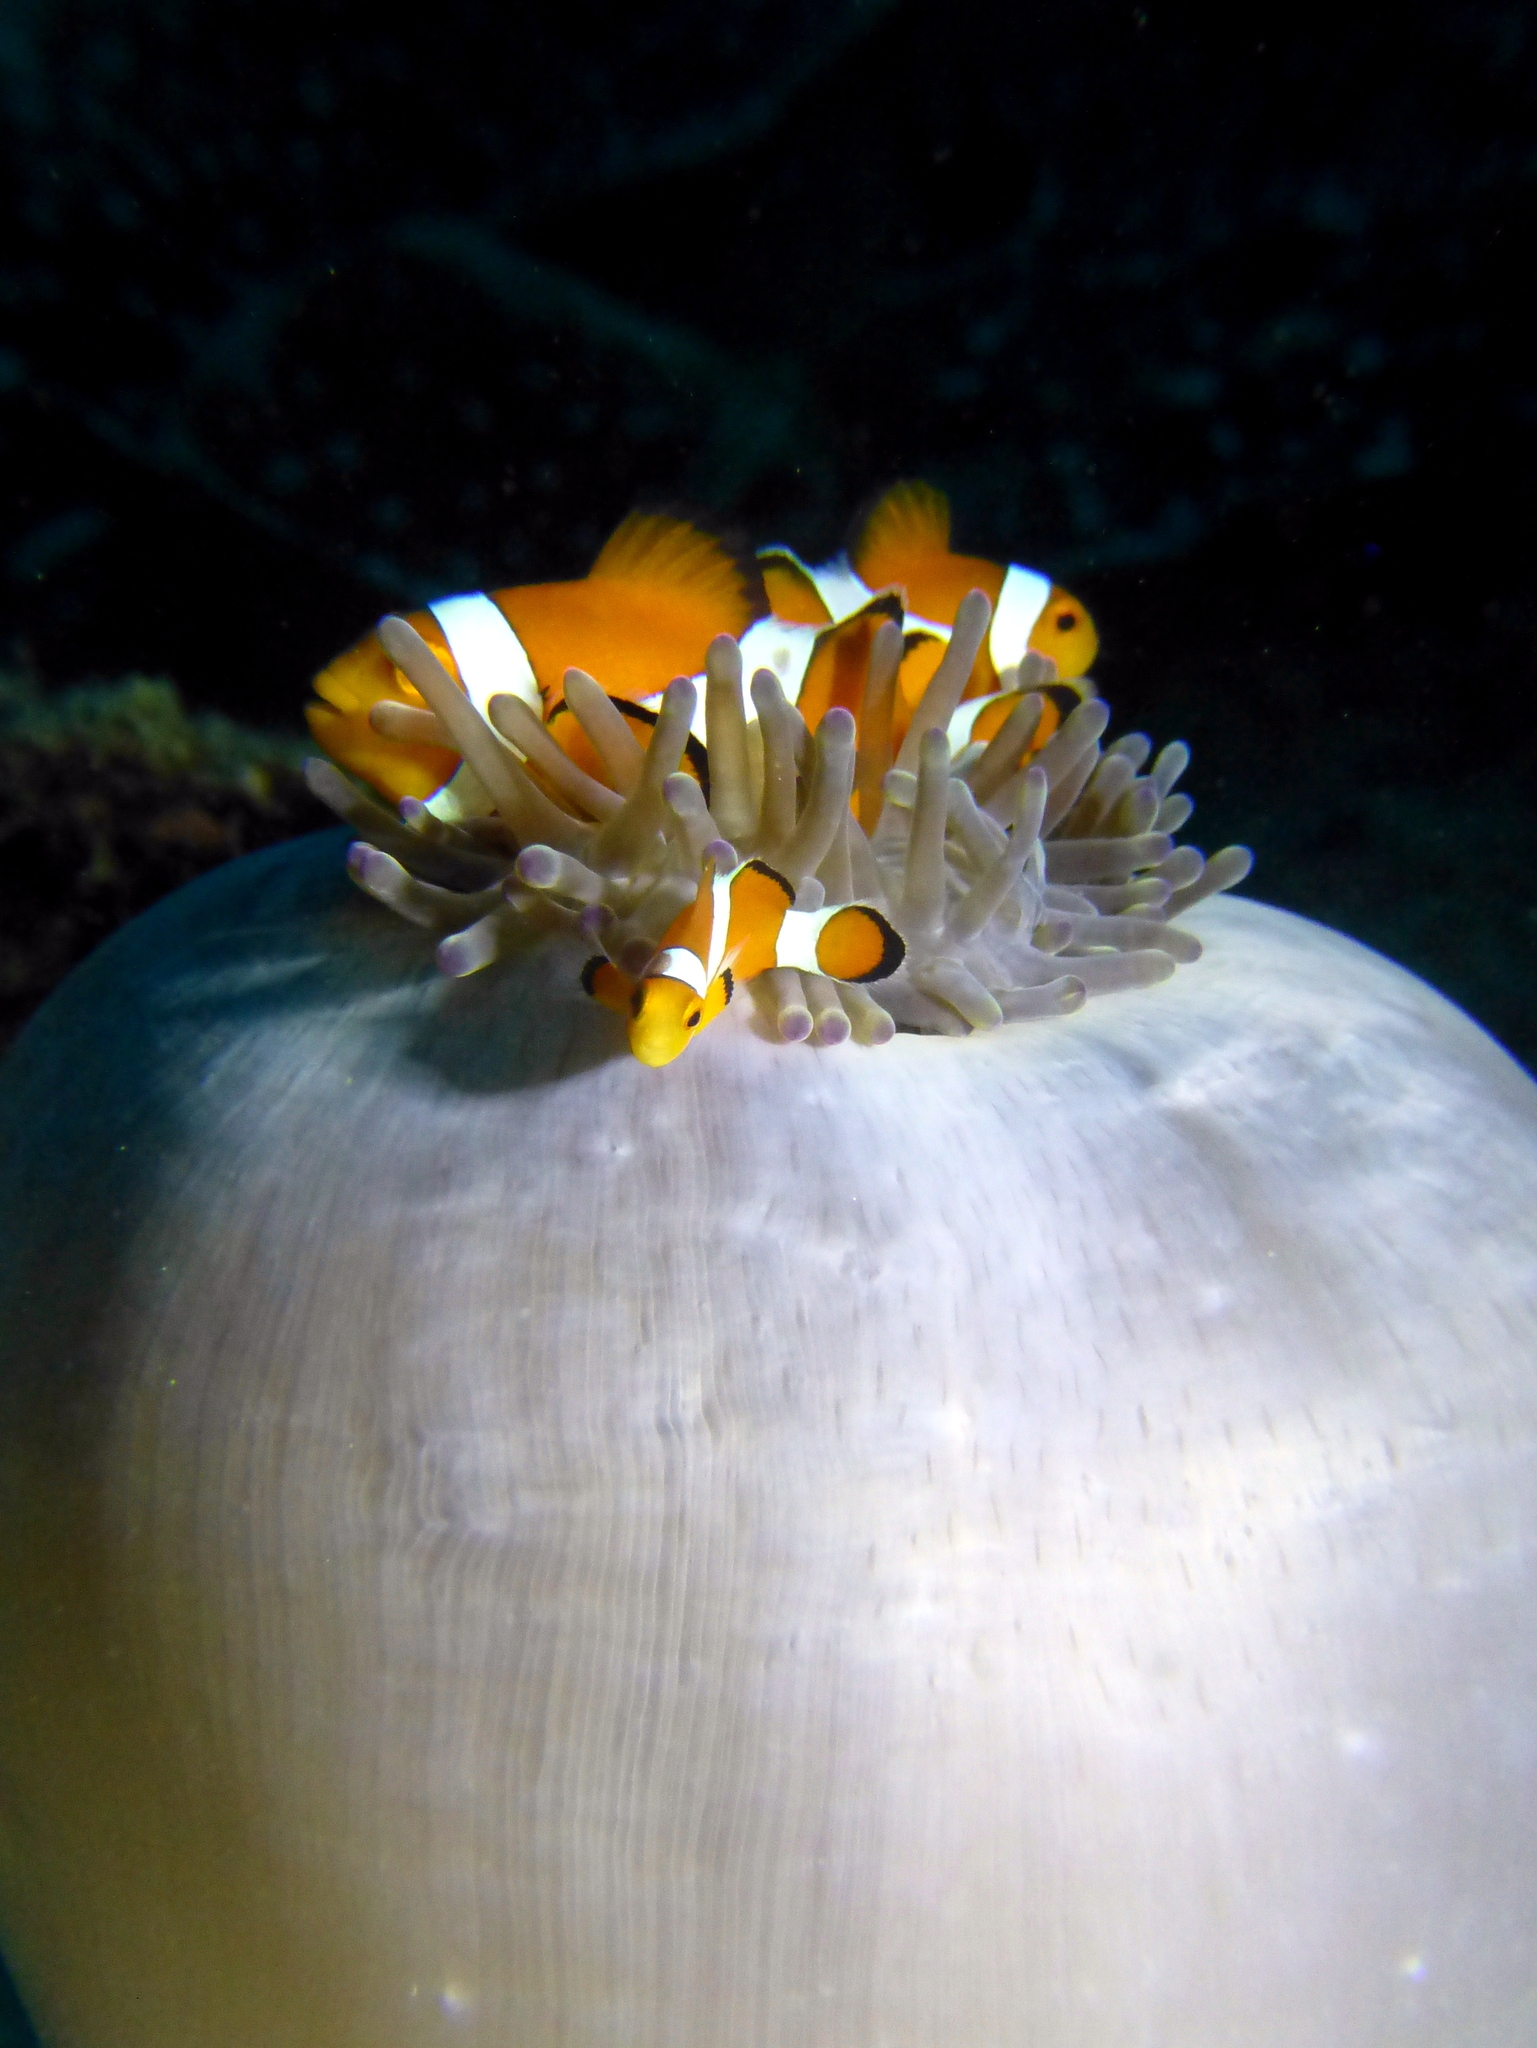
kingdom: Animalia
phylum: Chordata
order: Perciformes
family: Pomacentridae
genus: Amphiprion
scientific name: Amphiprion ocellaris
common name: Clown anemonefish
